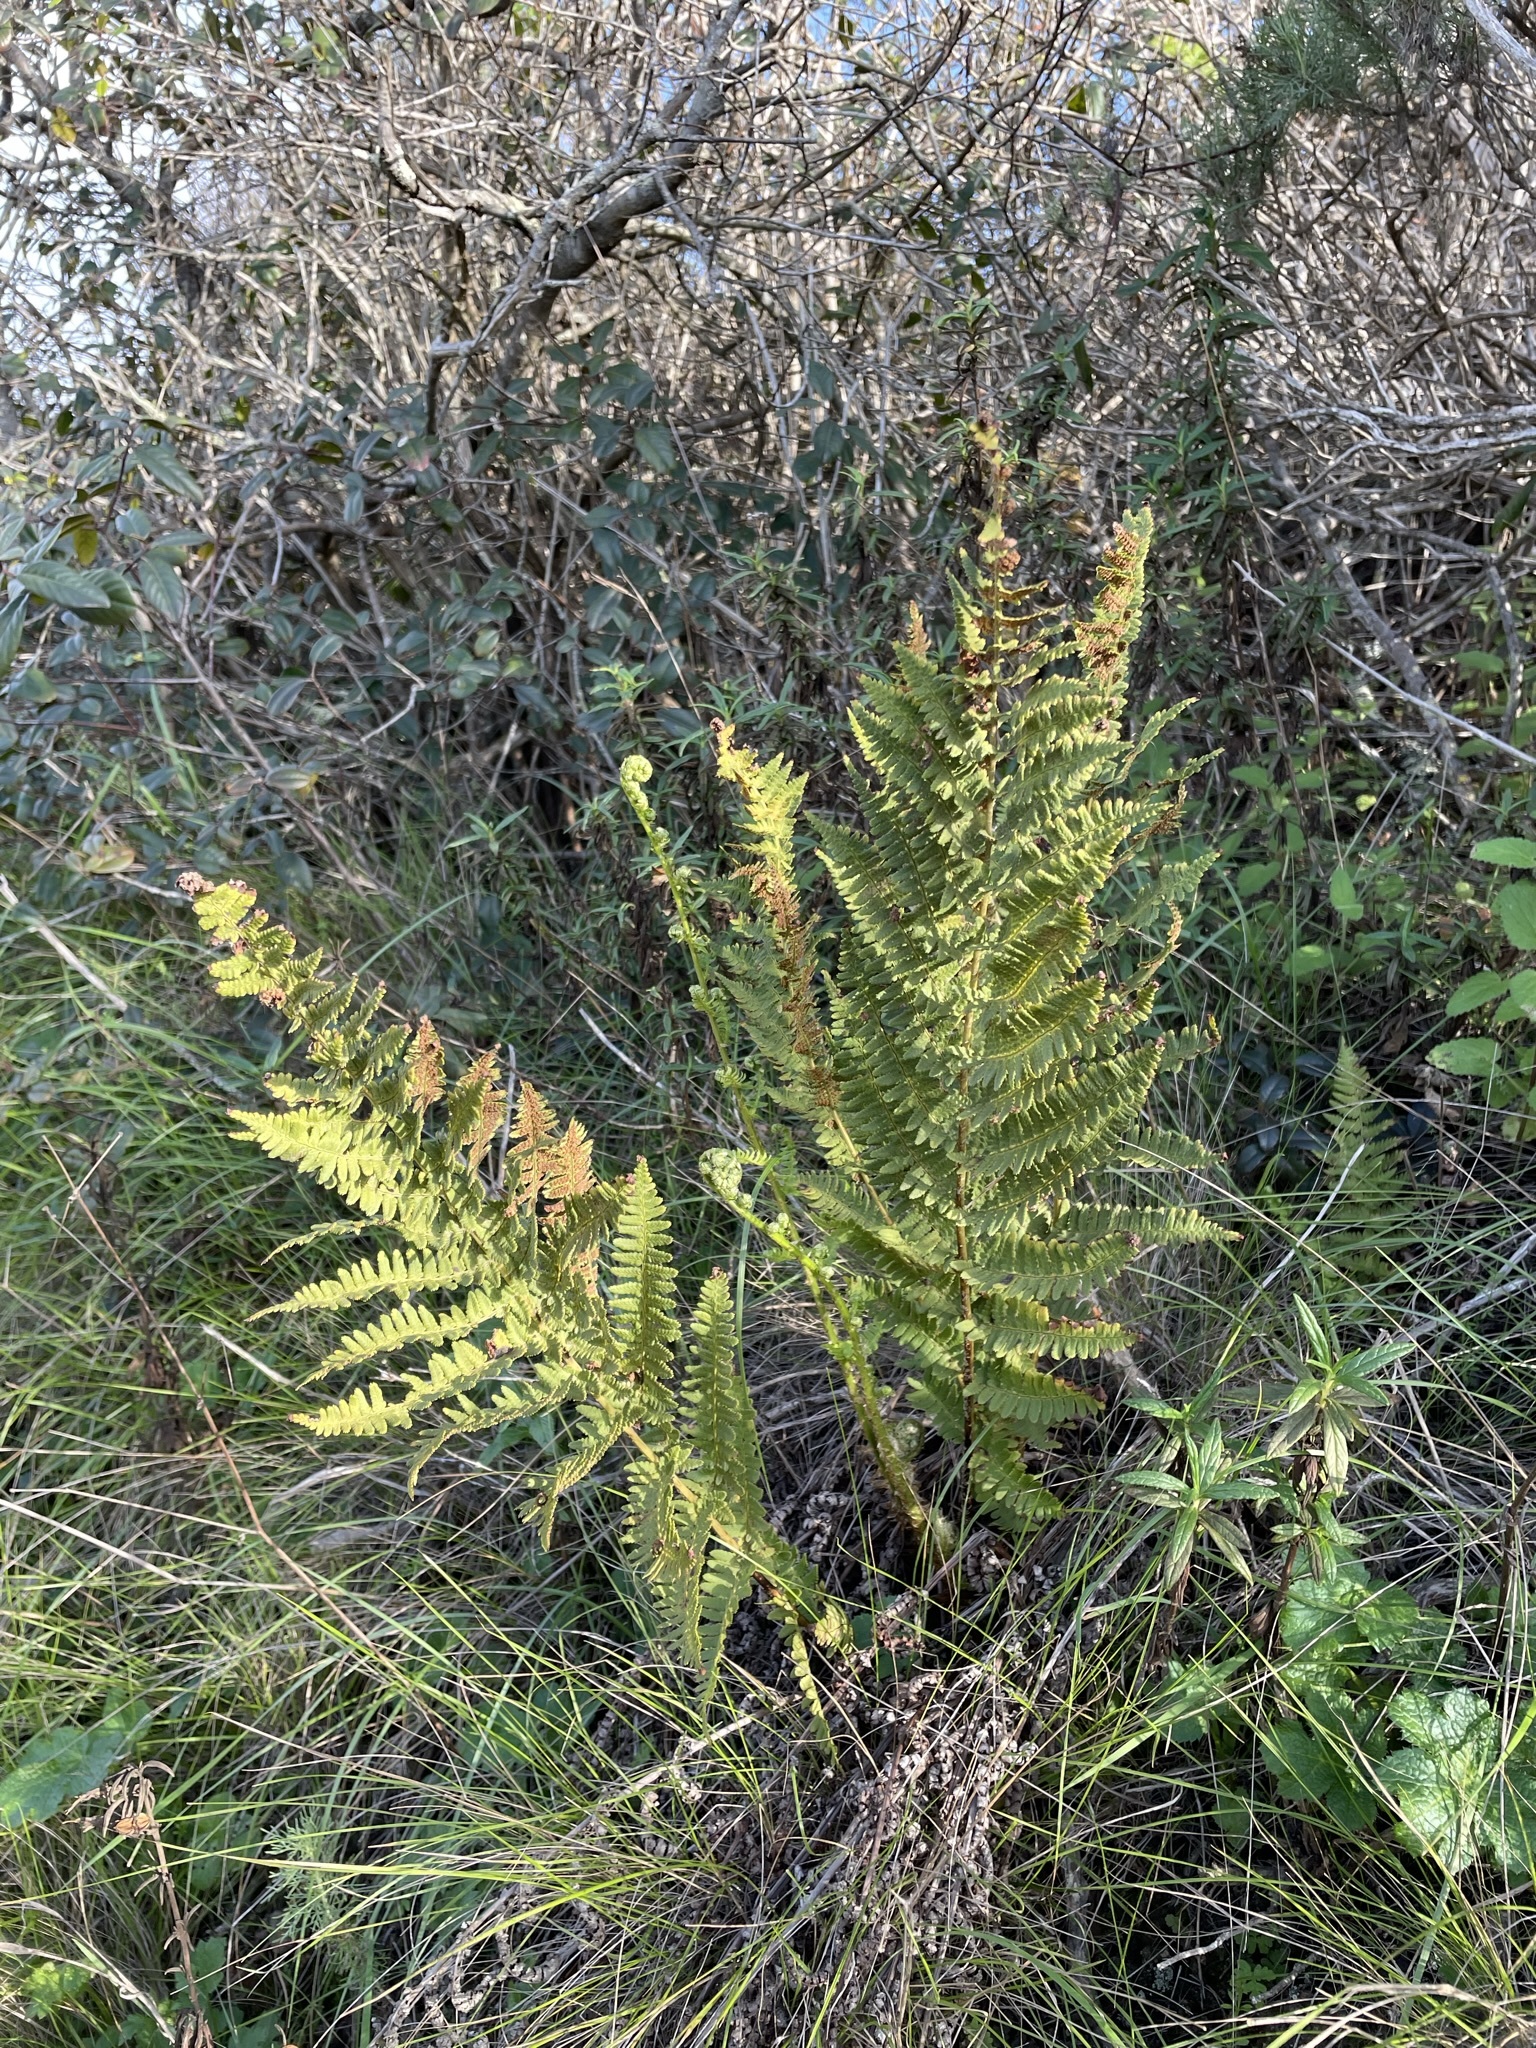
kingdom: Plantae
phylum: Tracheophyta
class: Polypodiopsida
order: Polypodiales
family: Dryopteridaceae
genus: Dryopteris
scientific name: Dryopteris arguta
